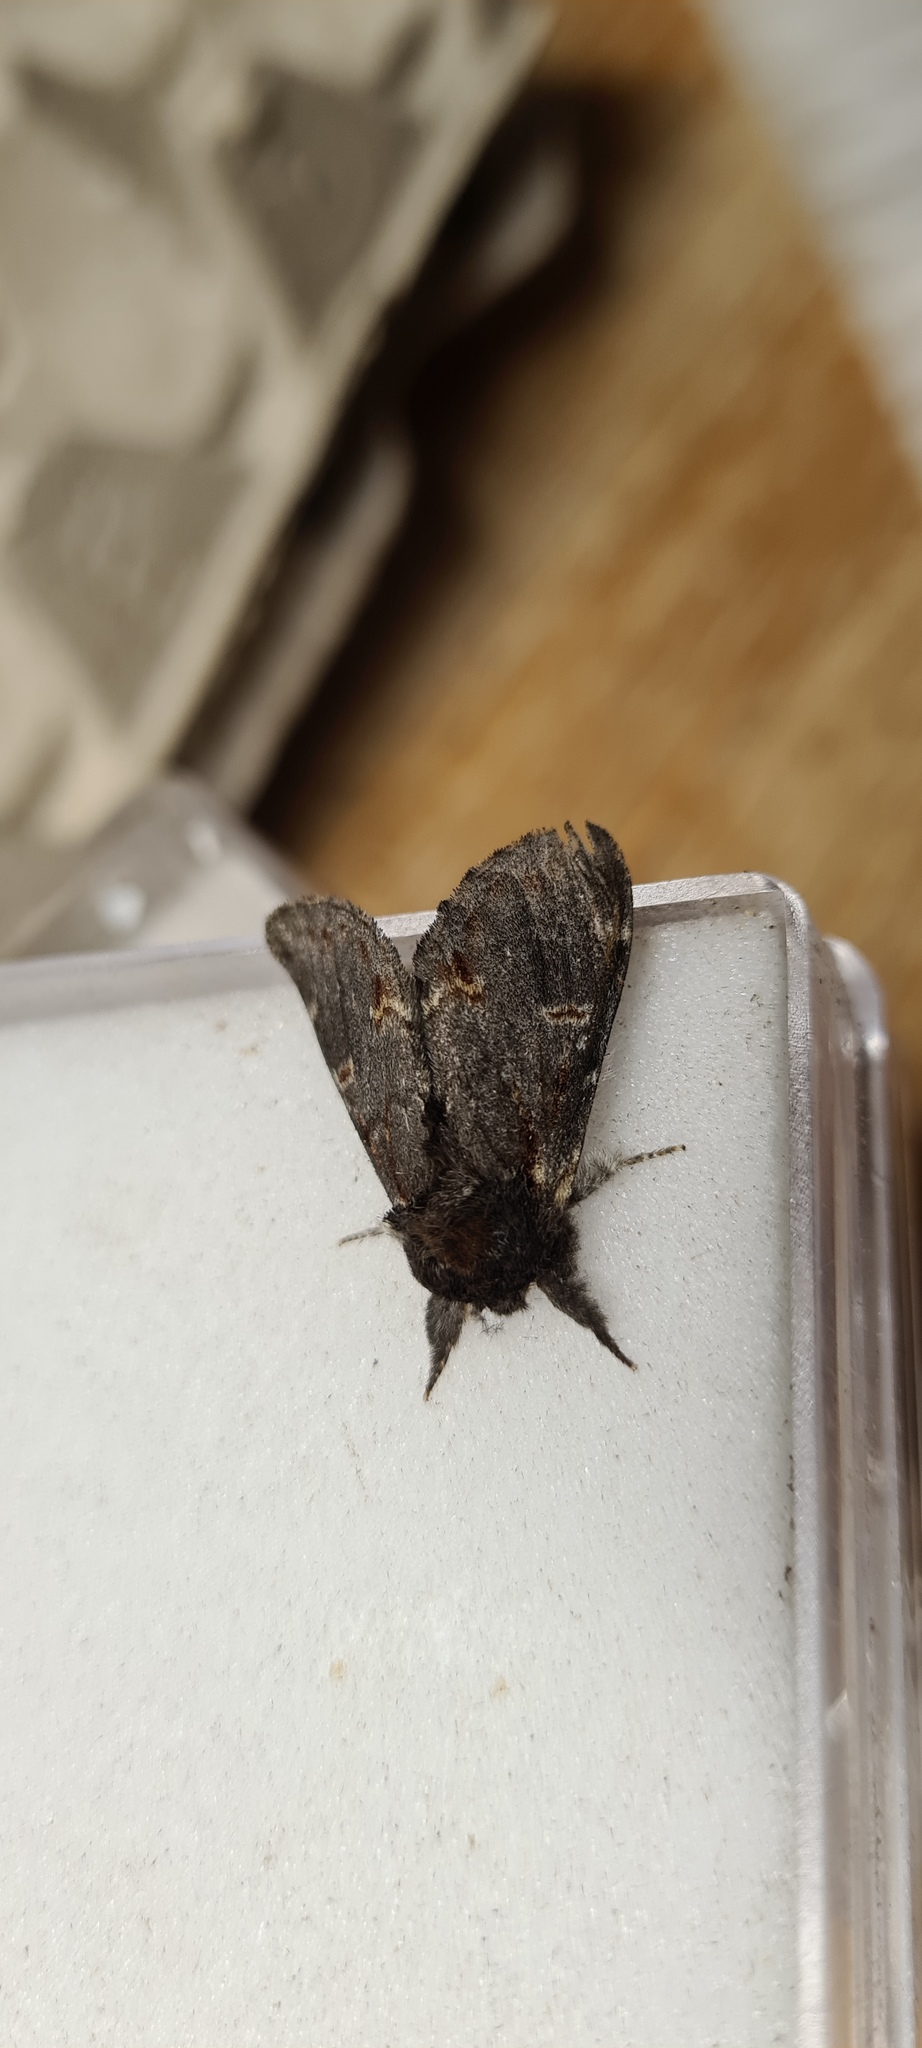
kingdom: Animalia
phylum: Arthropoda
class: Insecta
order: Lepidoptera
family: Notodontidae
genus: Notodonta
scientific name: Notodonta dromedarius
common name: Iron prominent
